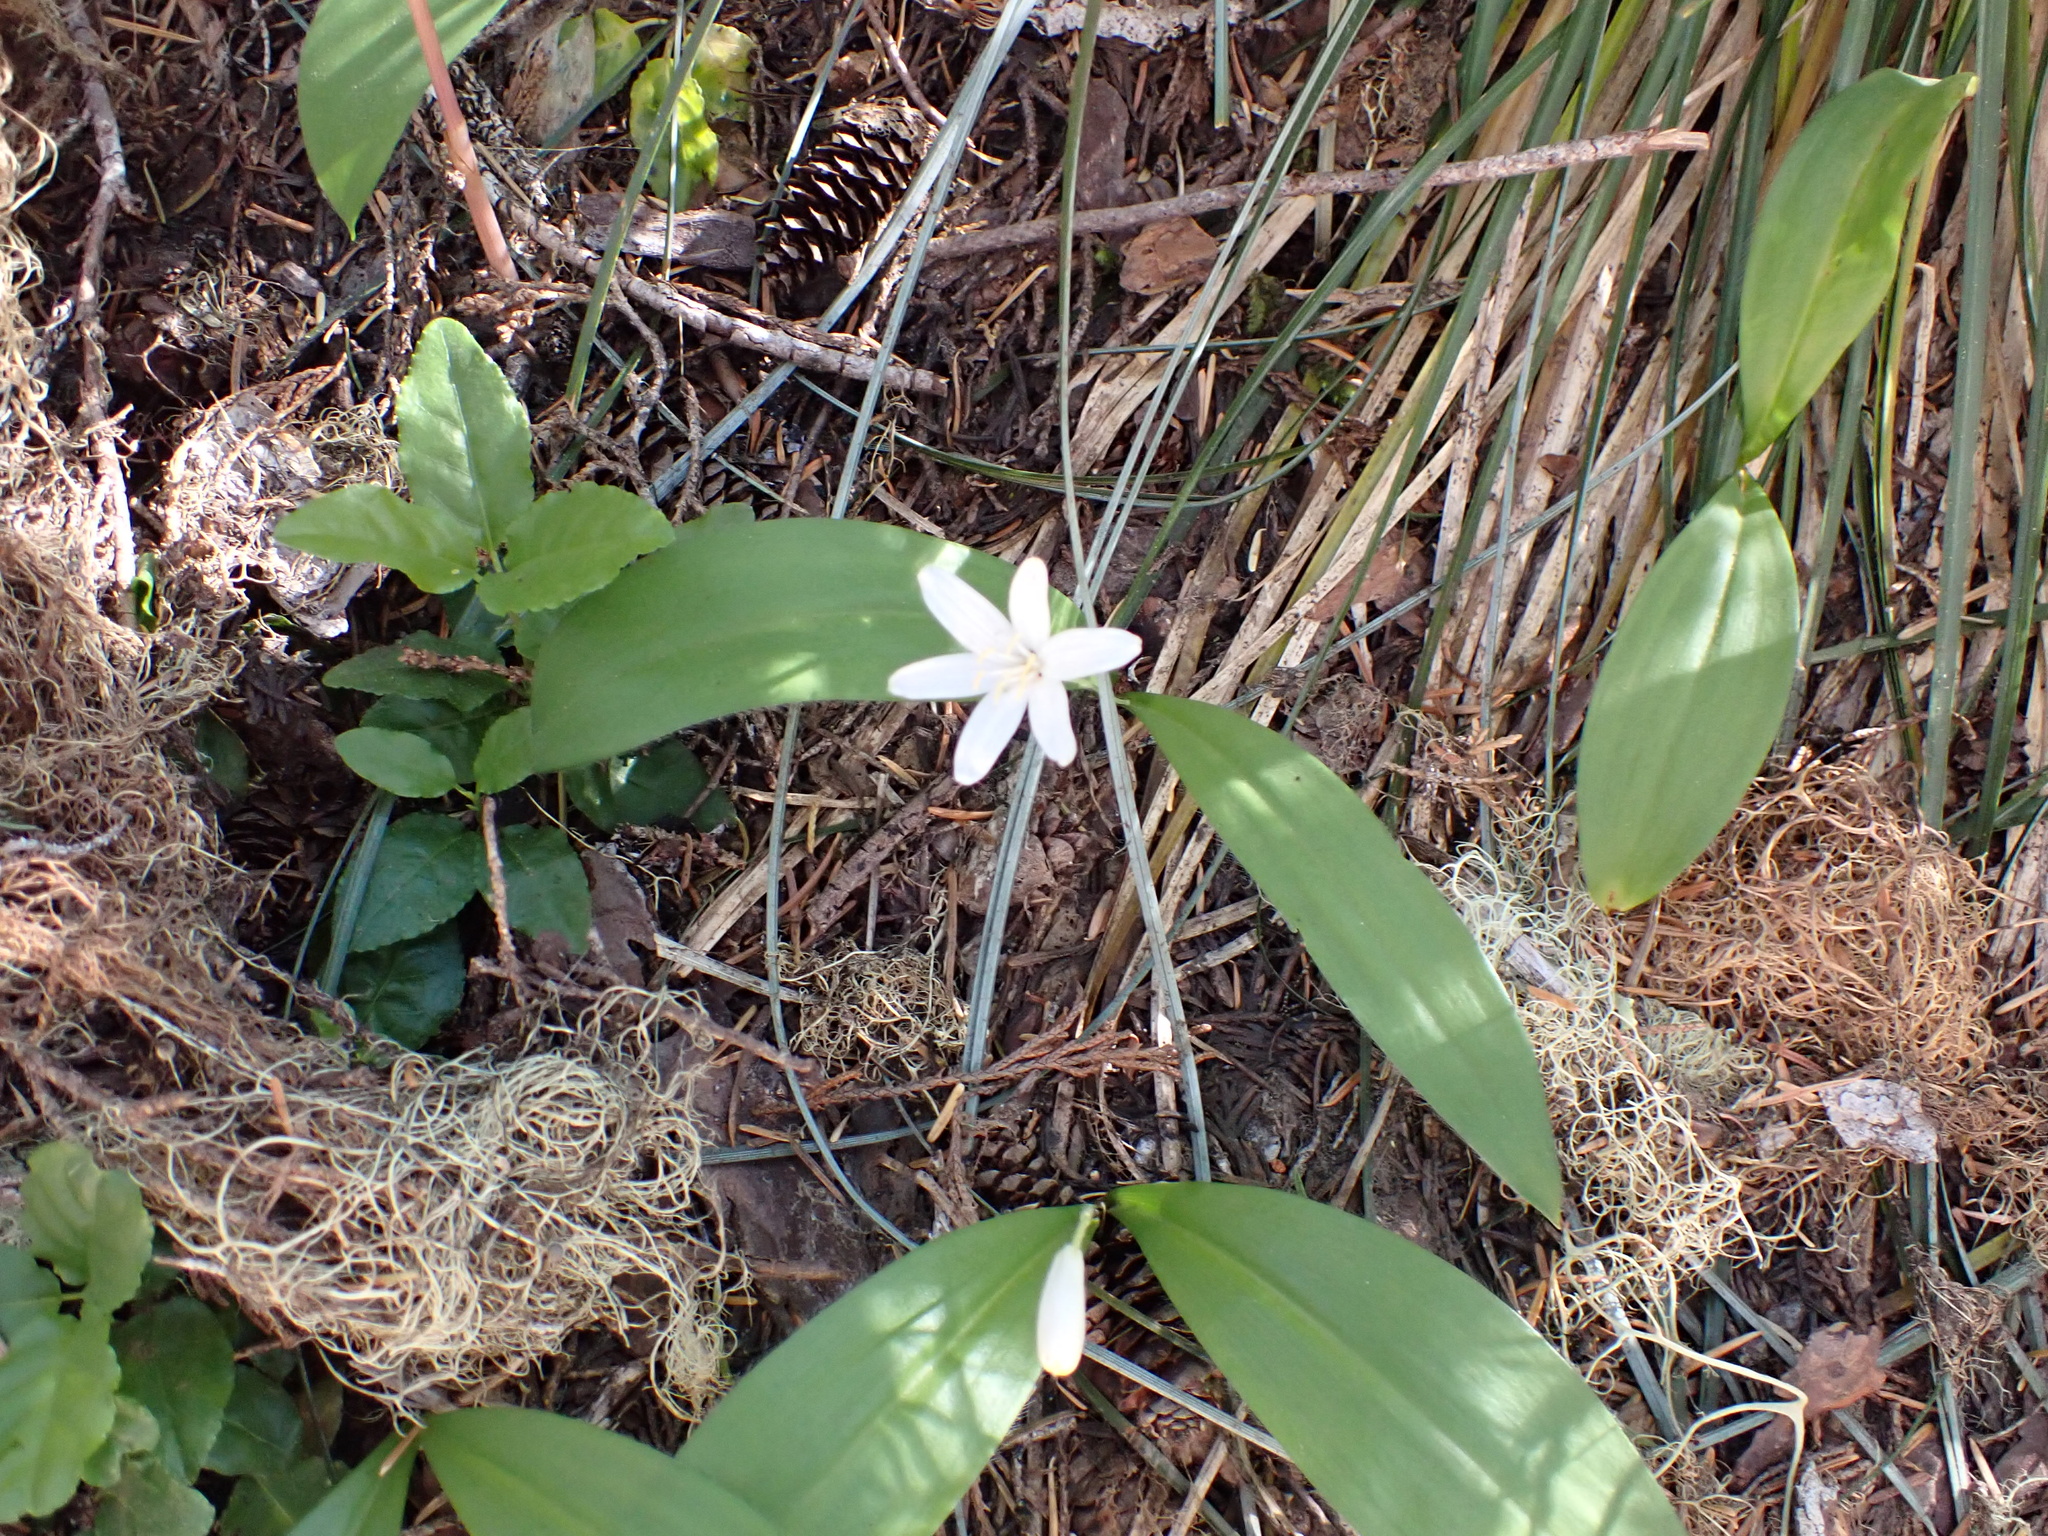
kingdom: Plantae
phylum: Tracheophyta
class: Liliopsida
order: Liliales
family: Liliaceae
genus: Clintonia
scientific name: Clintonia uniflora
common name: Queen's cup
